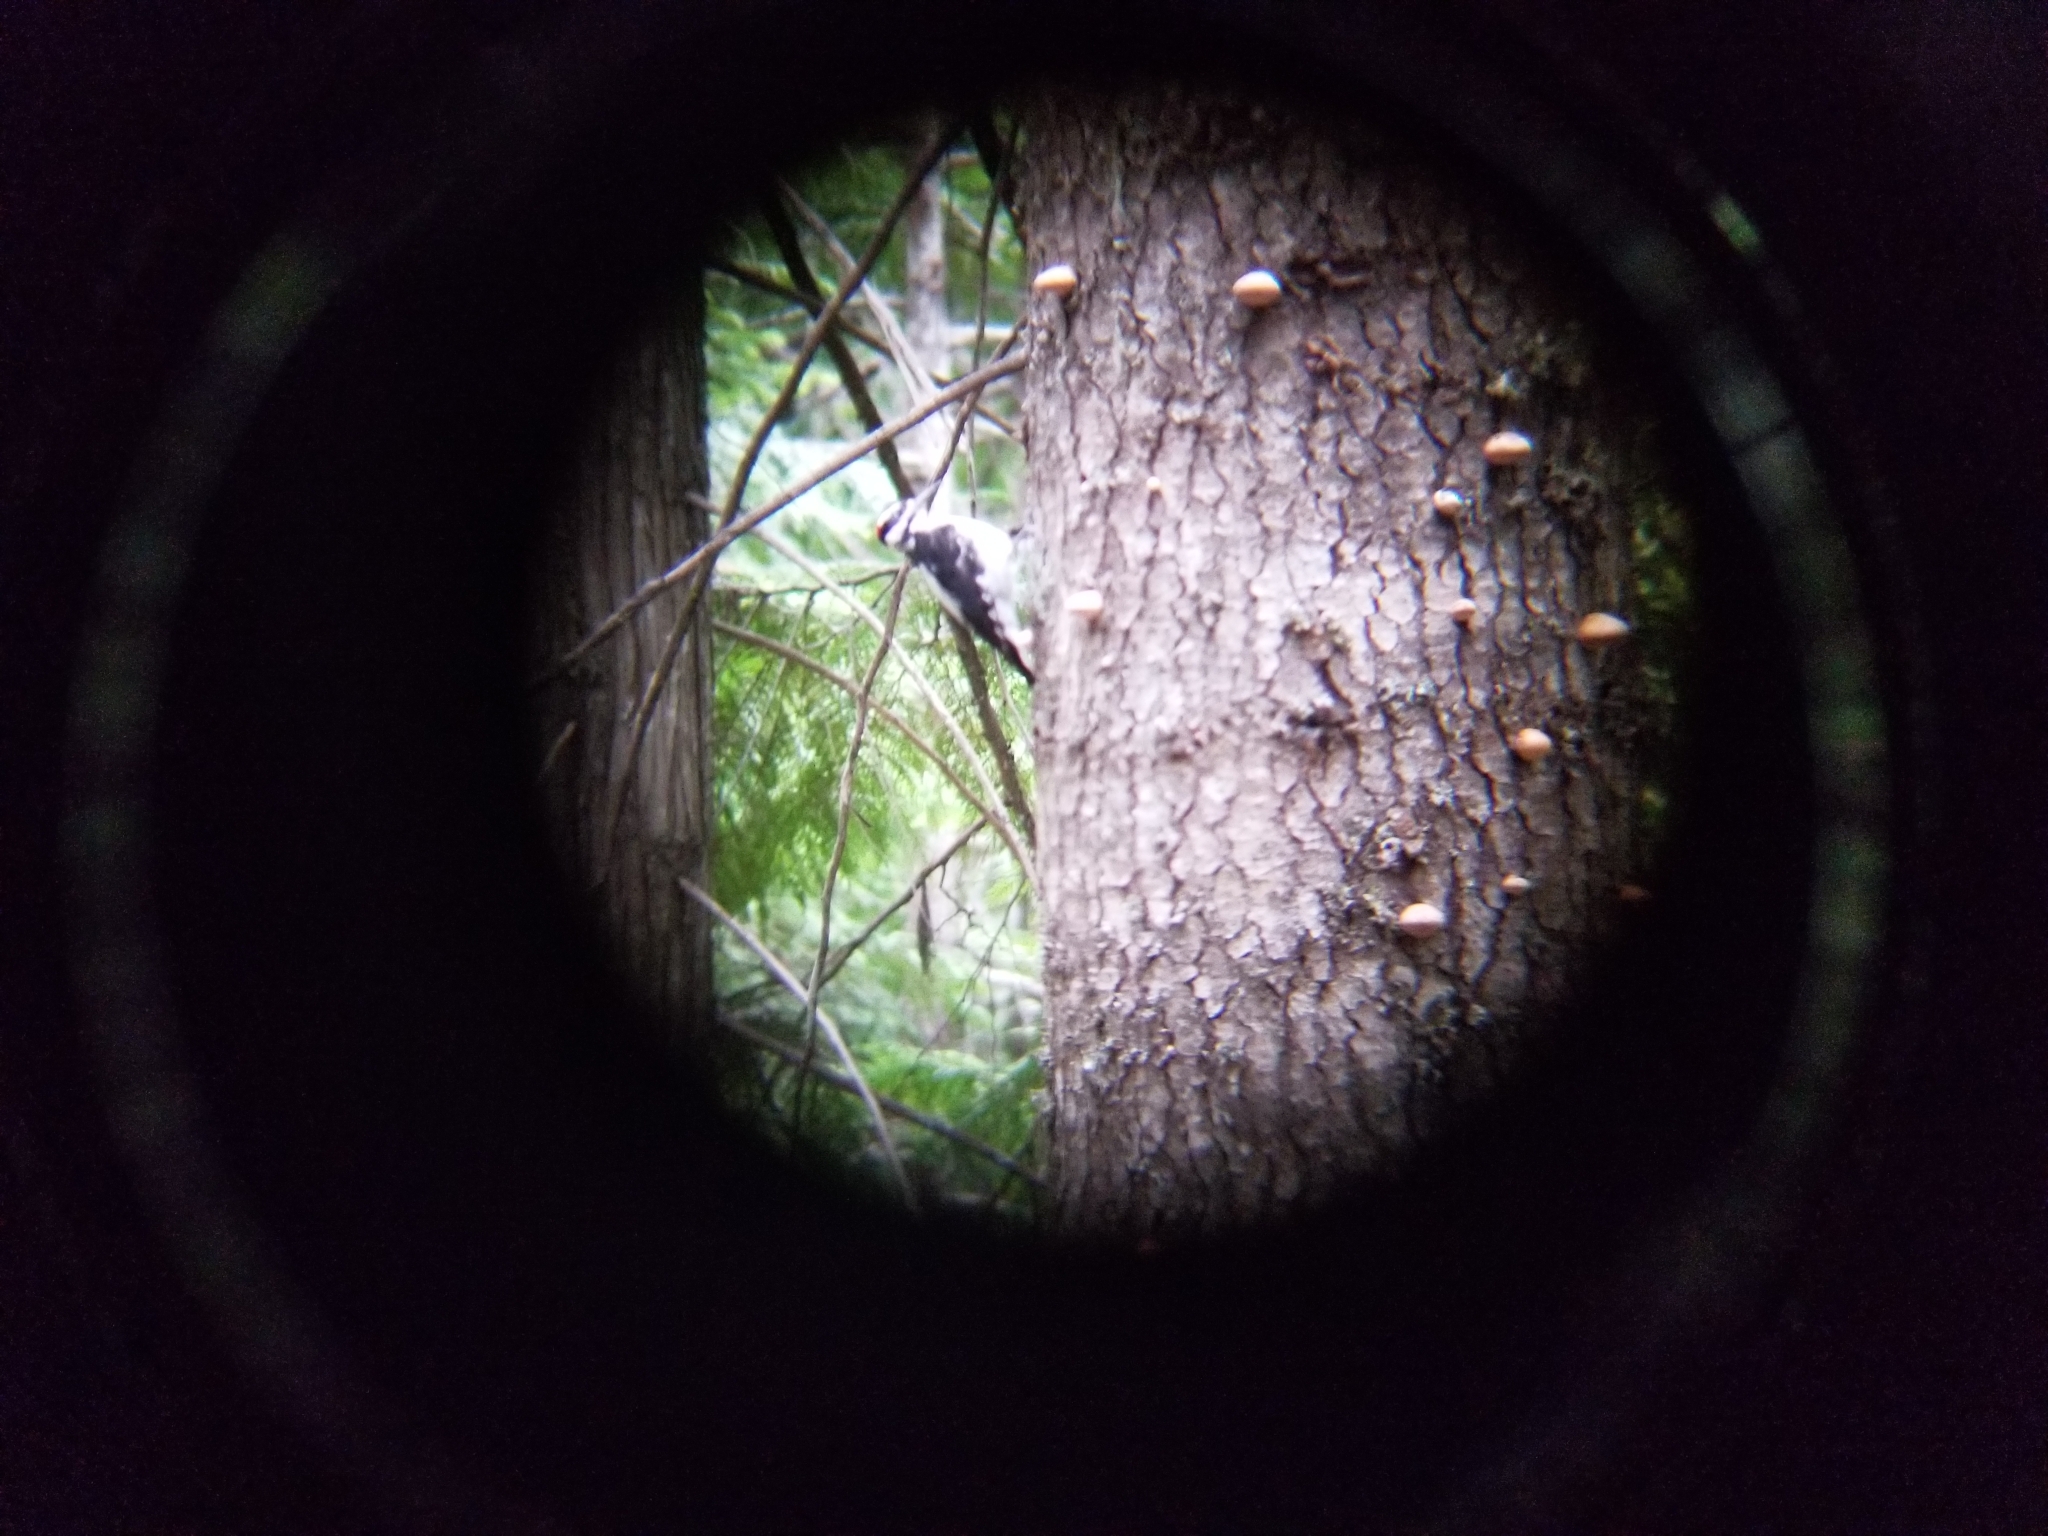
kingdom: Animalia
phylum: Chordata
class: Aves
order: Piciformes
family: Picidae
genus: Leuconotopicus
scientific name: Leuconotopicus villosus
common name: Hairy woodpecker
